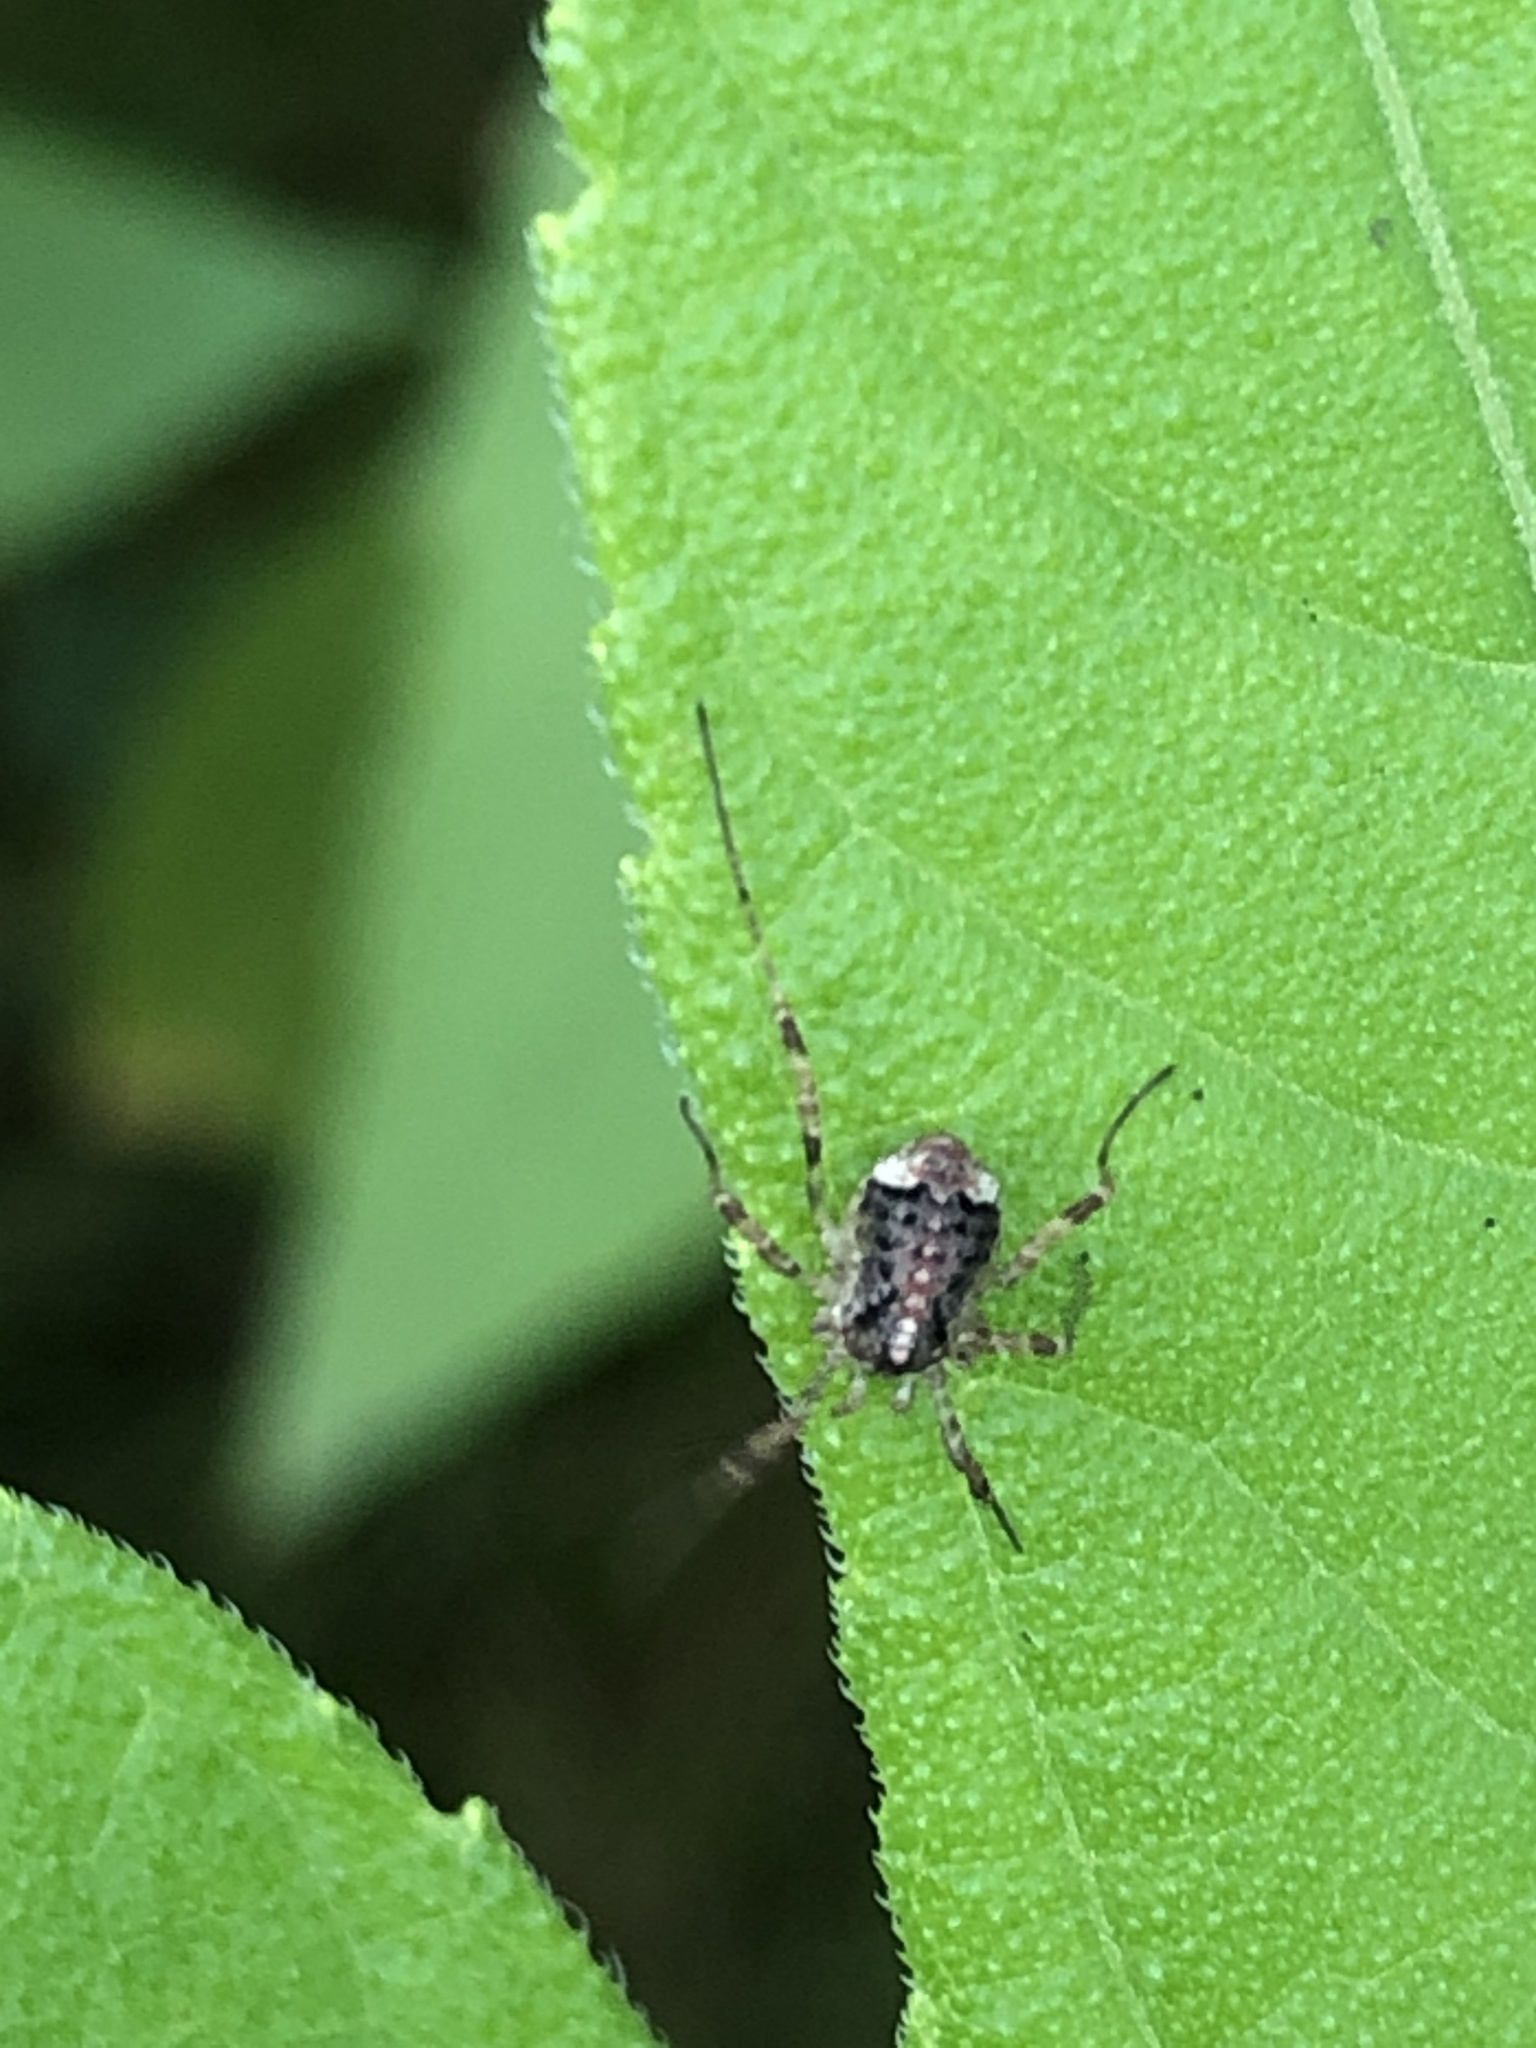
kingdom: Animalia
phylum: Arthropoda
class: Arachnida
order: Opiliones
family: Phalangiidae
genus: Paroligolophus
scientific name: Paroligolophus agrestis
